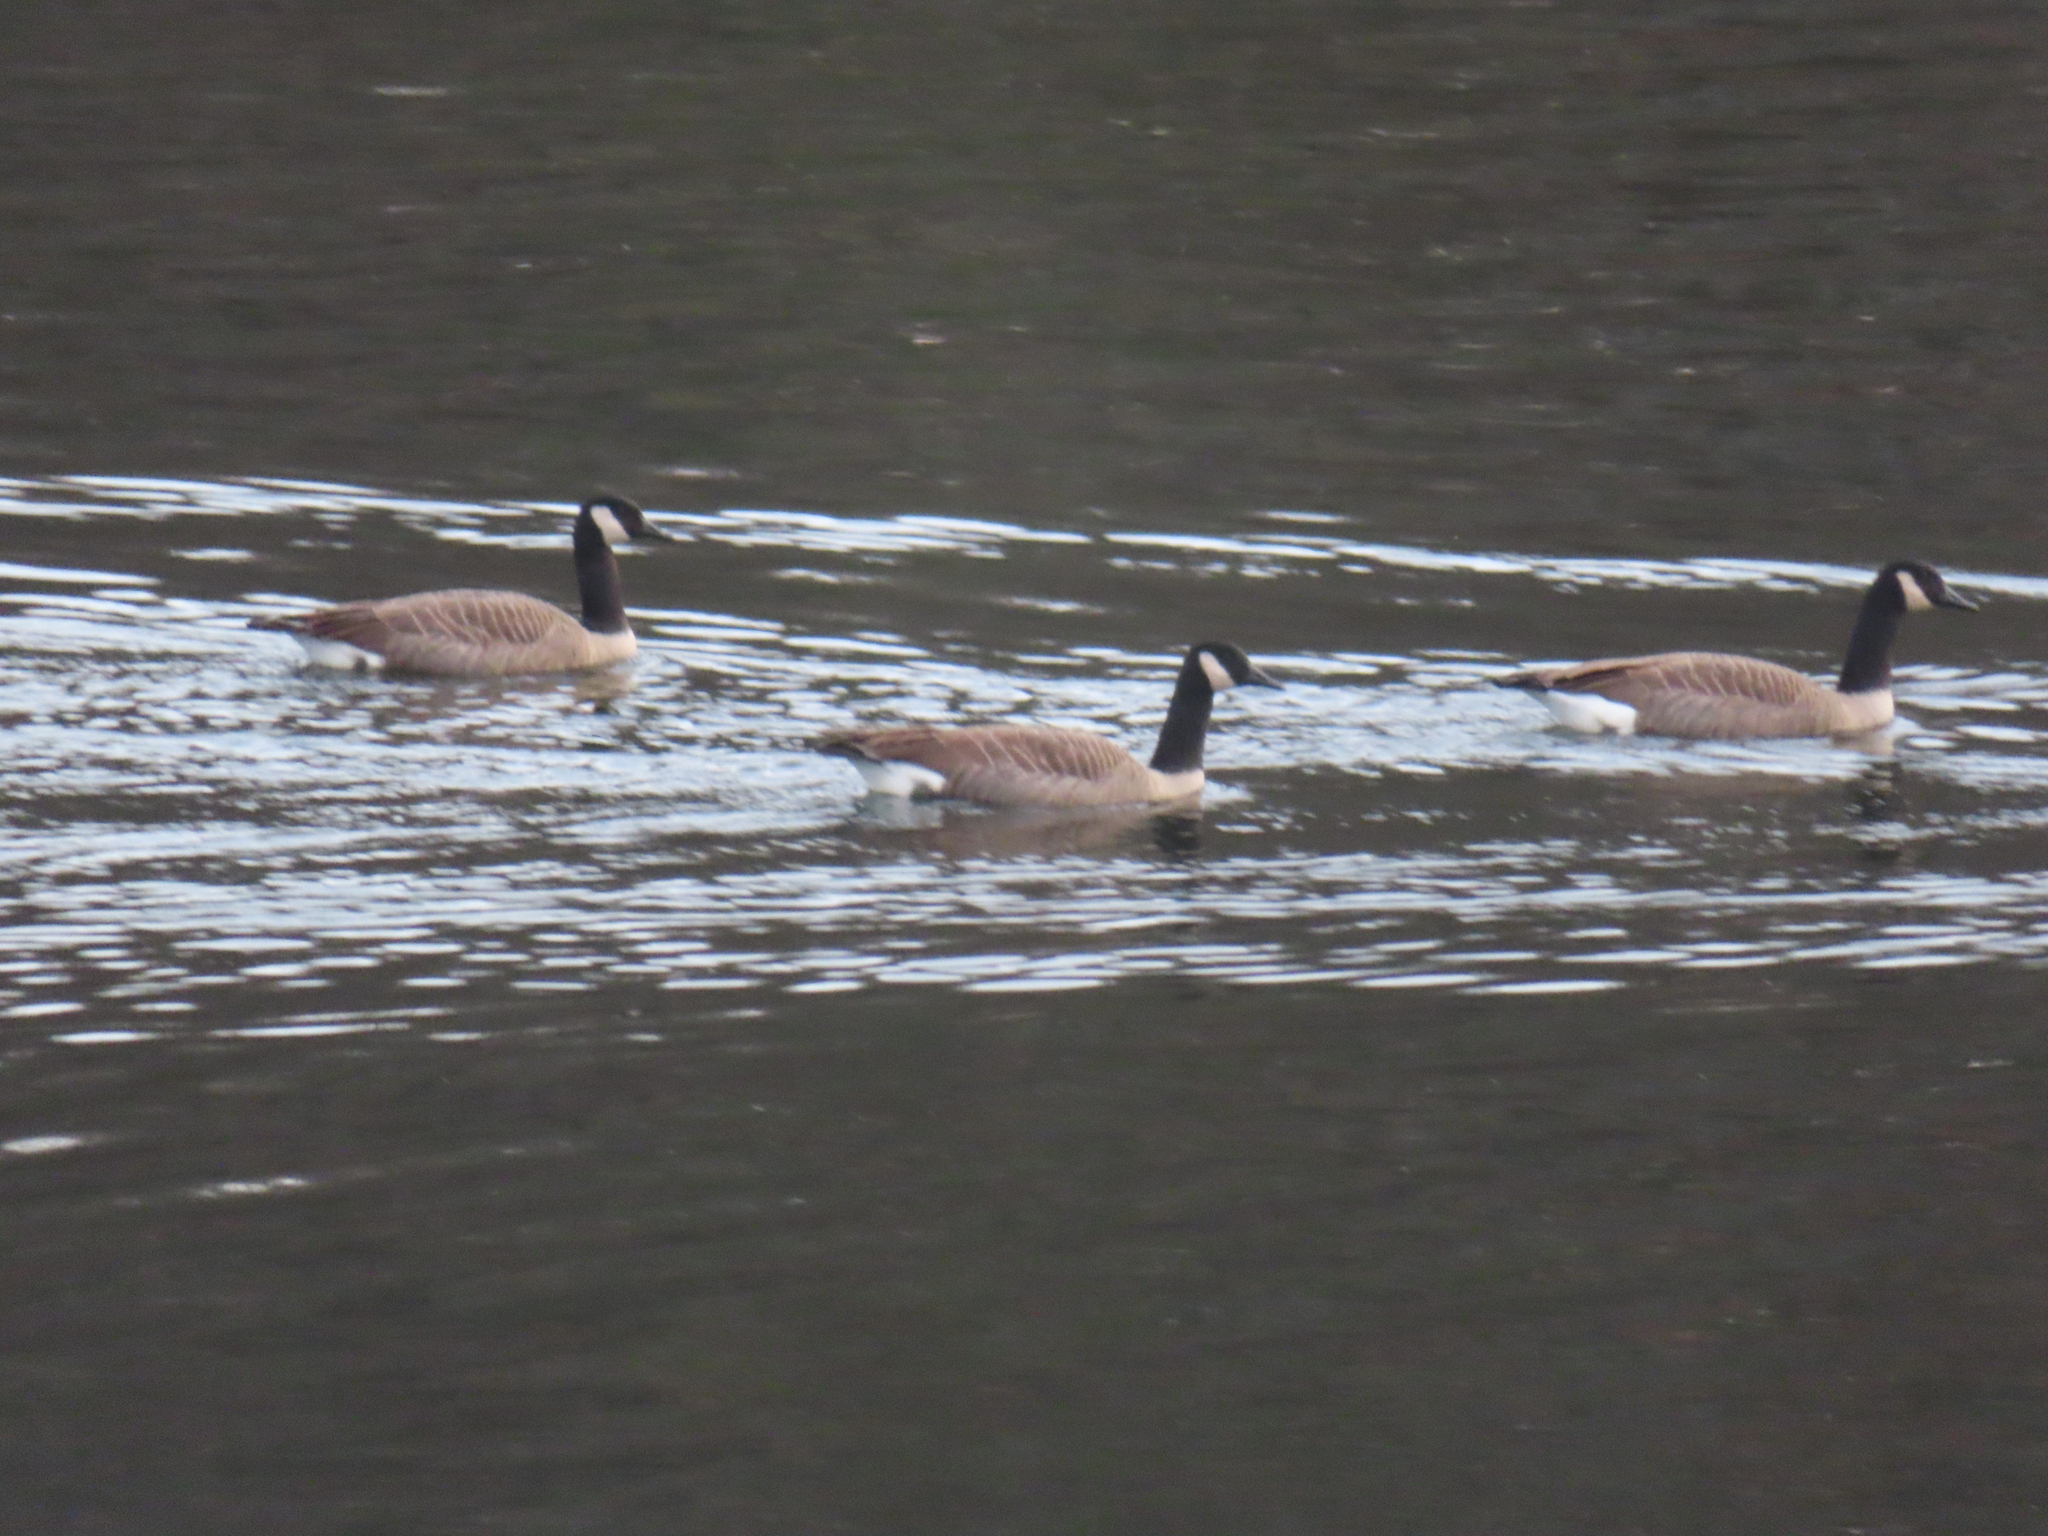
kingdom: Animalia
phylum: Chordata
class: Aves
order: Anseriformes
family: Anatidae
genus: Branta
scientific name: Branta canadensis
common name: Canada goose
